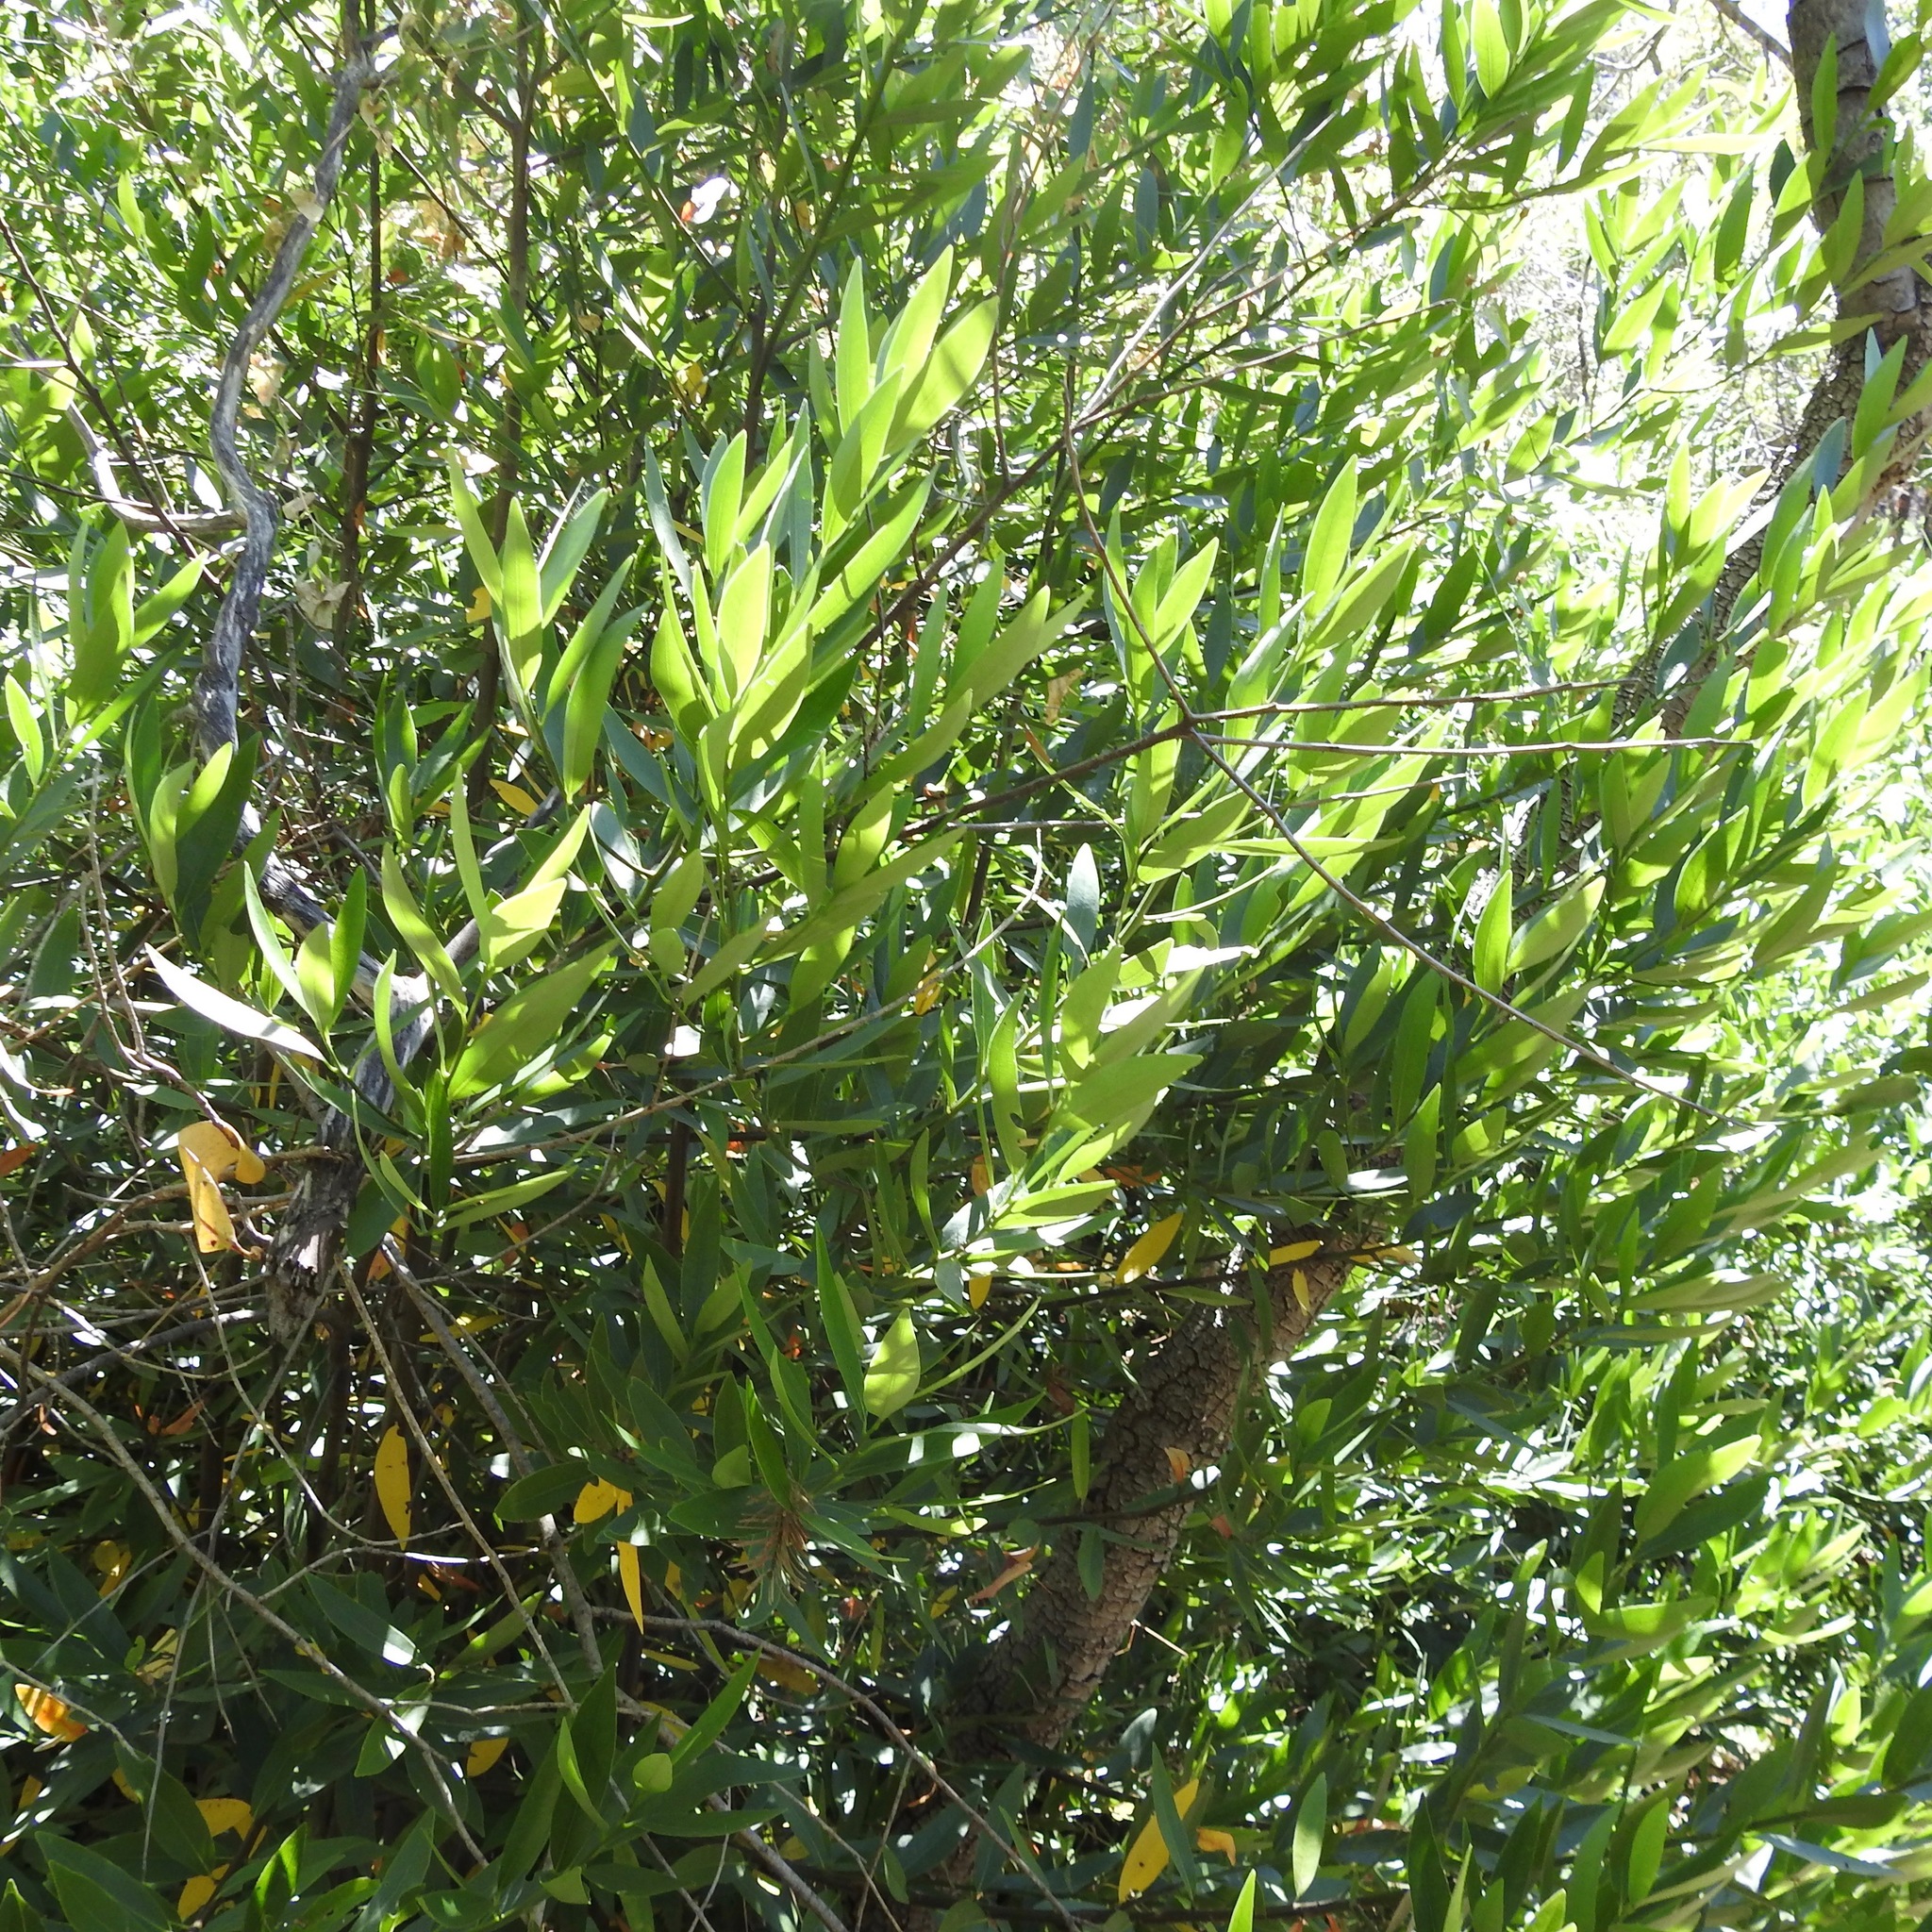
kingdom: Plantae
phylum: Tracheophyta
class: Magnoliopsida
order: Laurales
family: Lauraceae
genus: Umbellularia
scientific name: Umbellularia californica
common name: California bay
